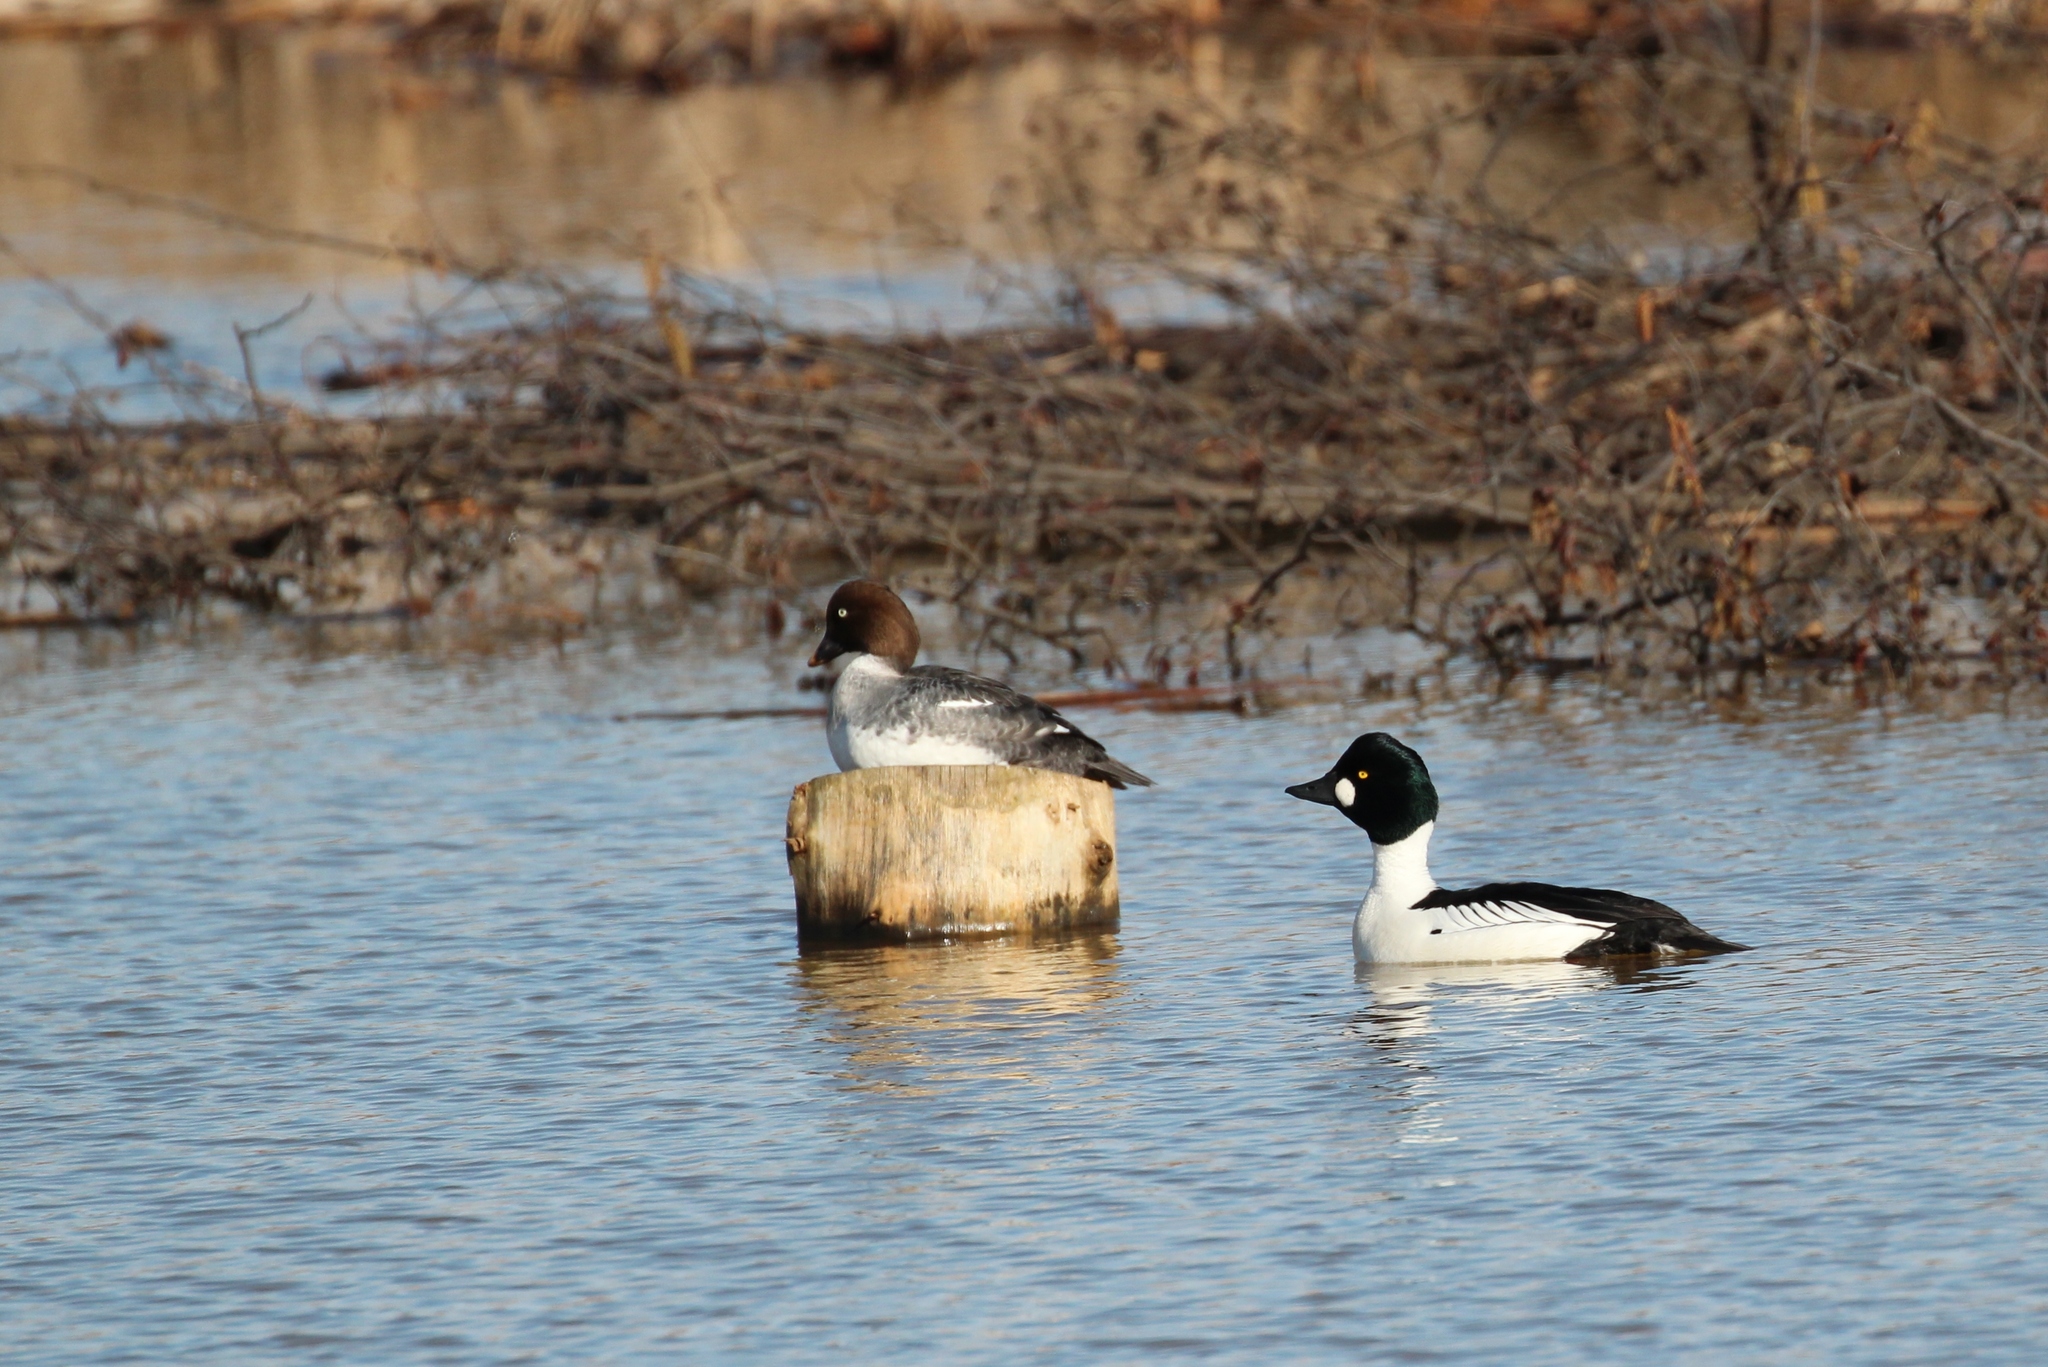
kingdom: Animalia
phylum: Chordata
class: Aves
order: Anseriformes
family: Anatidae
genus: Bucephala
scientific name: Bucephala clangula
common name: Common goldeneye
